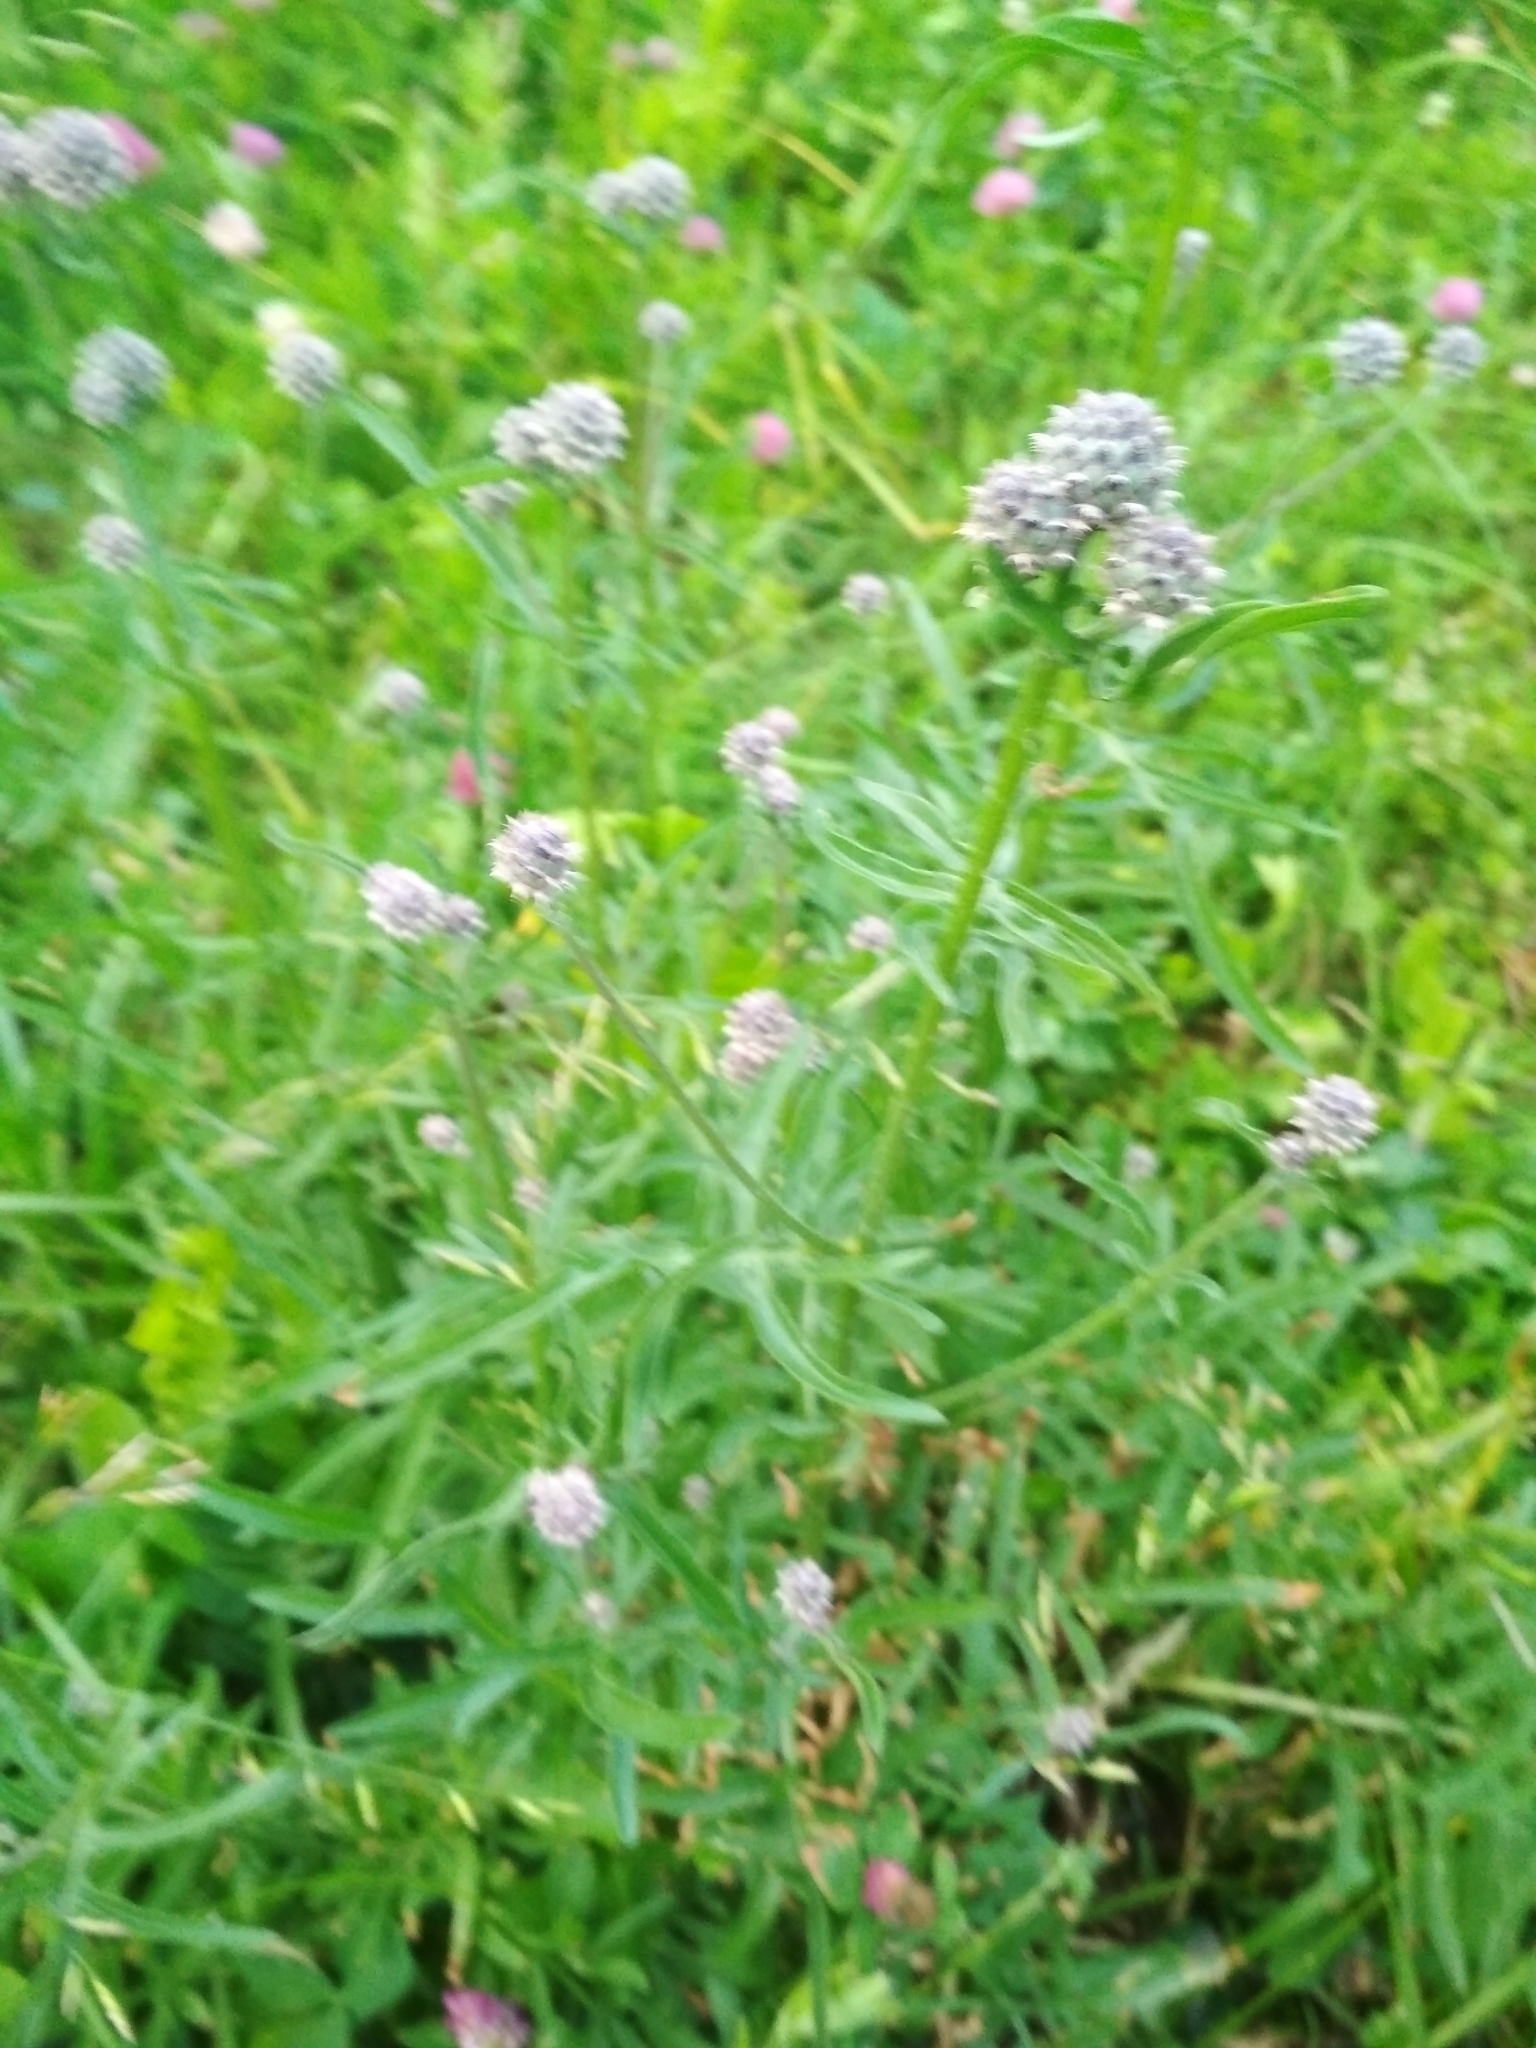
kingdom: Plantae
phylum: Tracheophyta
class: Magnoliopsida
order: Asterales
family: Asteraceae
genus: Centaurea
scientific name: Centaurea scabiosa
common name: Greater knapweed
